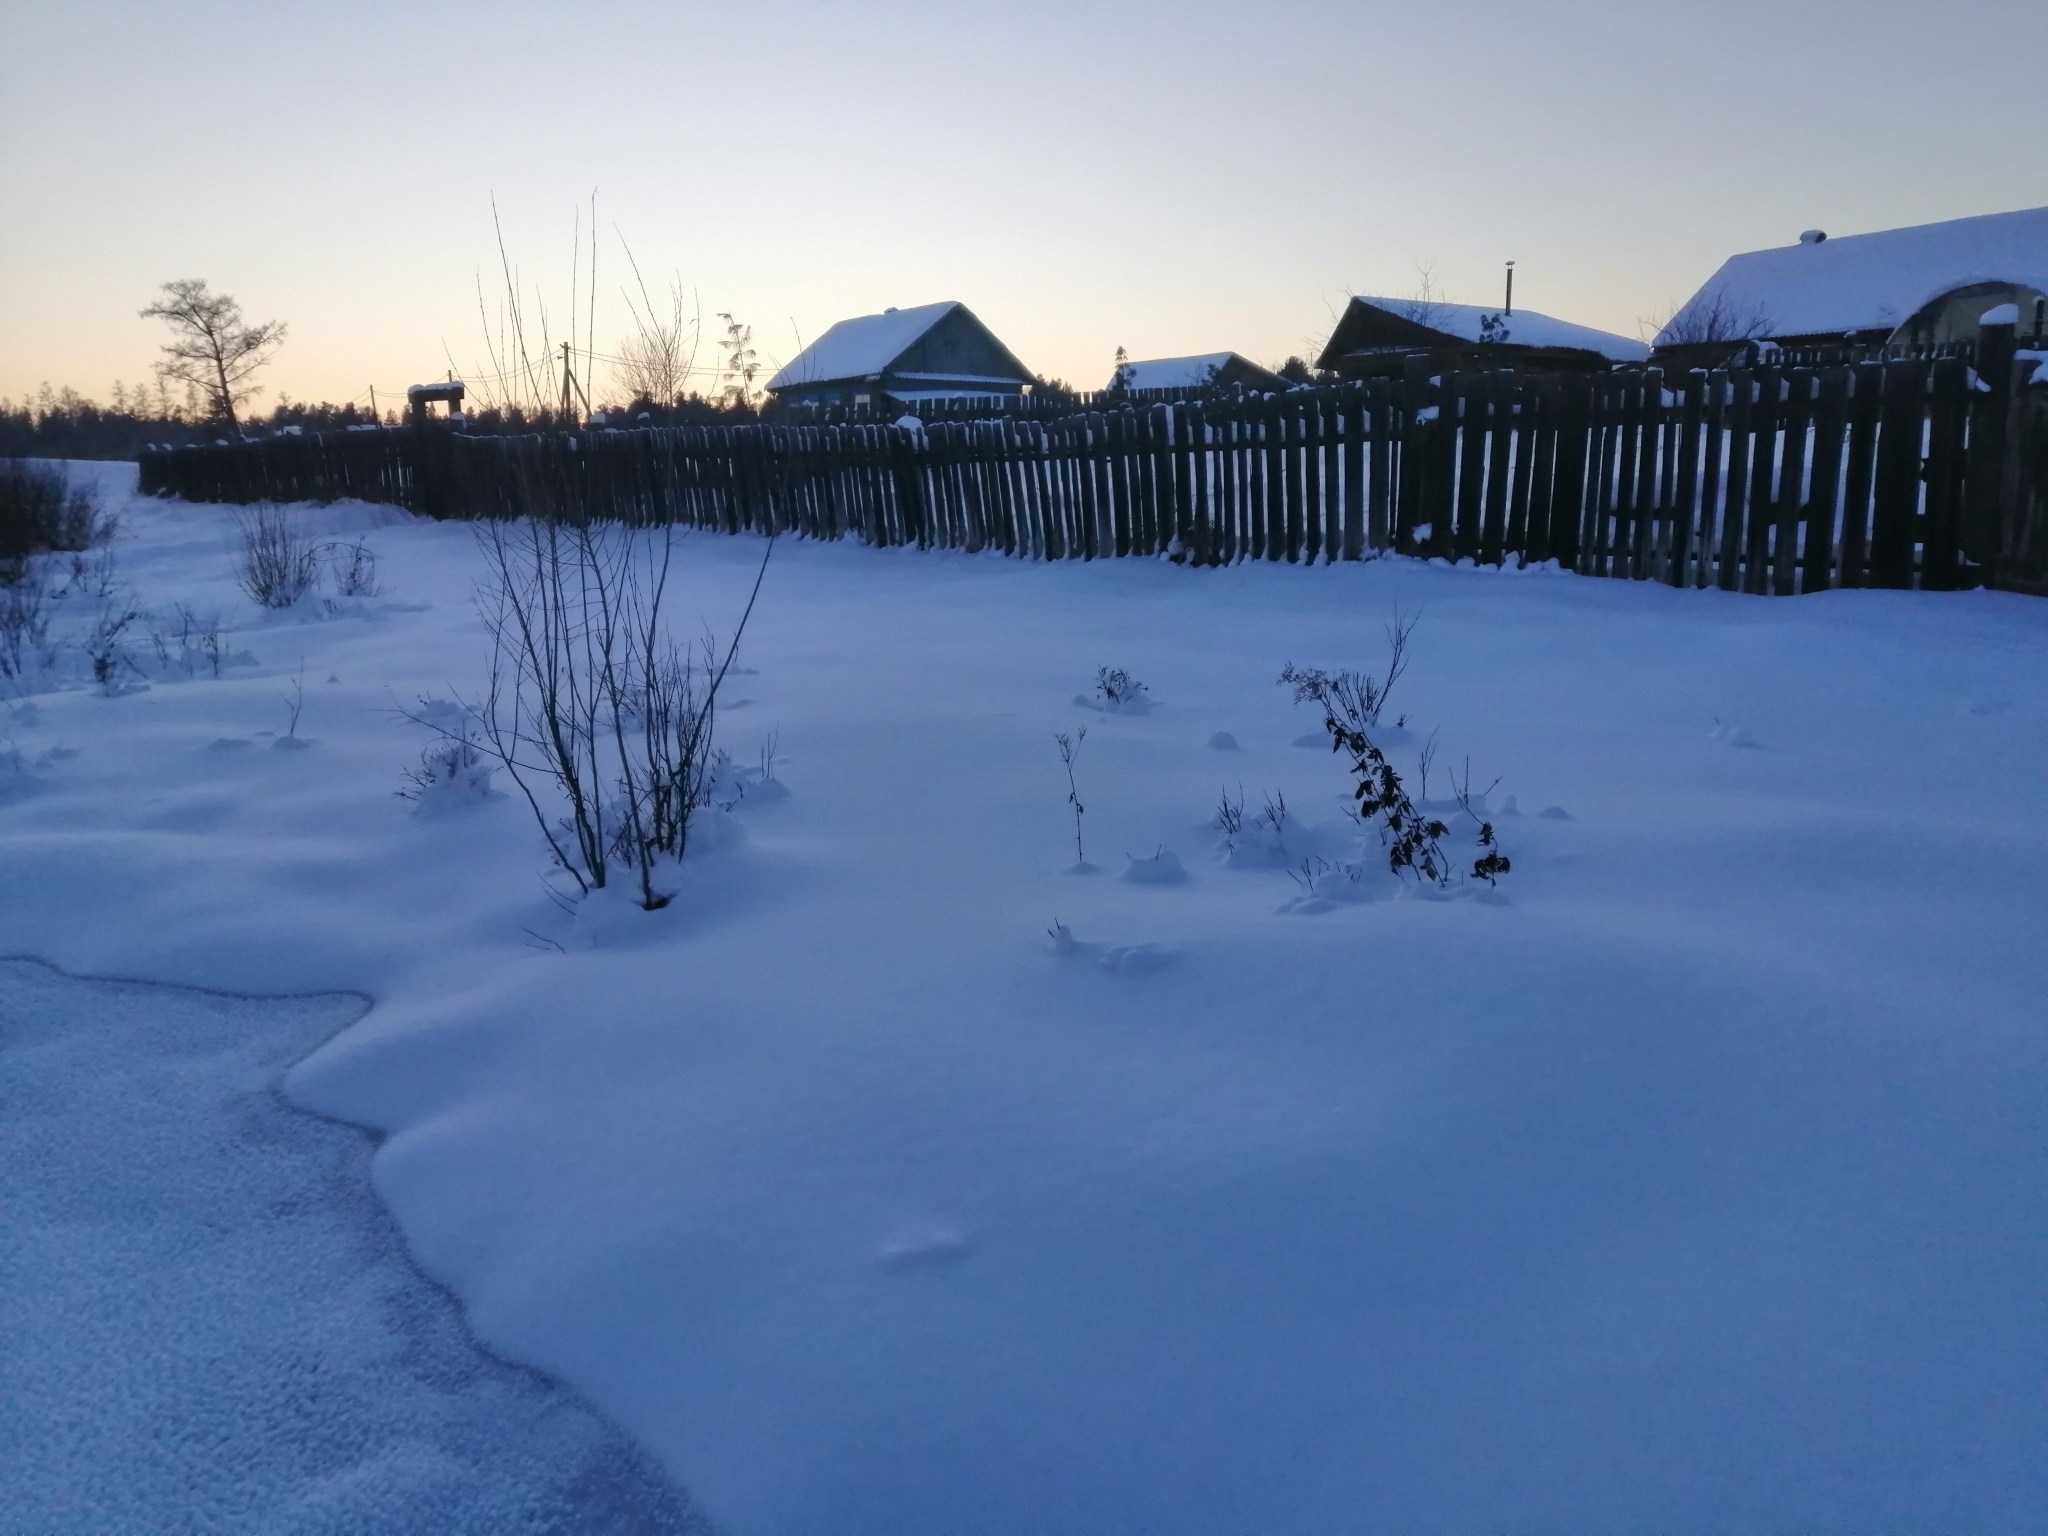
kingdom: Plantae
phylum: Tracheophyta
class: Magnoliopsida
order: Rosales
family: Rosaceae
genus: Filipendula
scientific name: Filipendula ulmaria
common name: Meadowsweet
